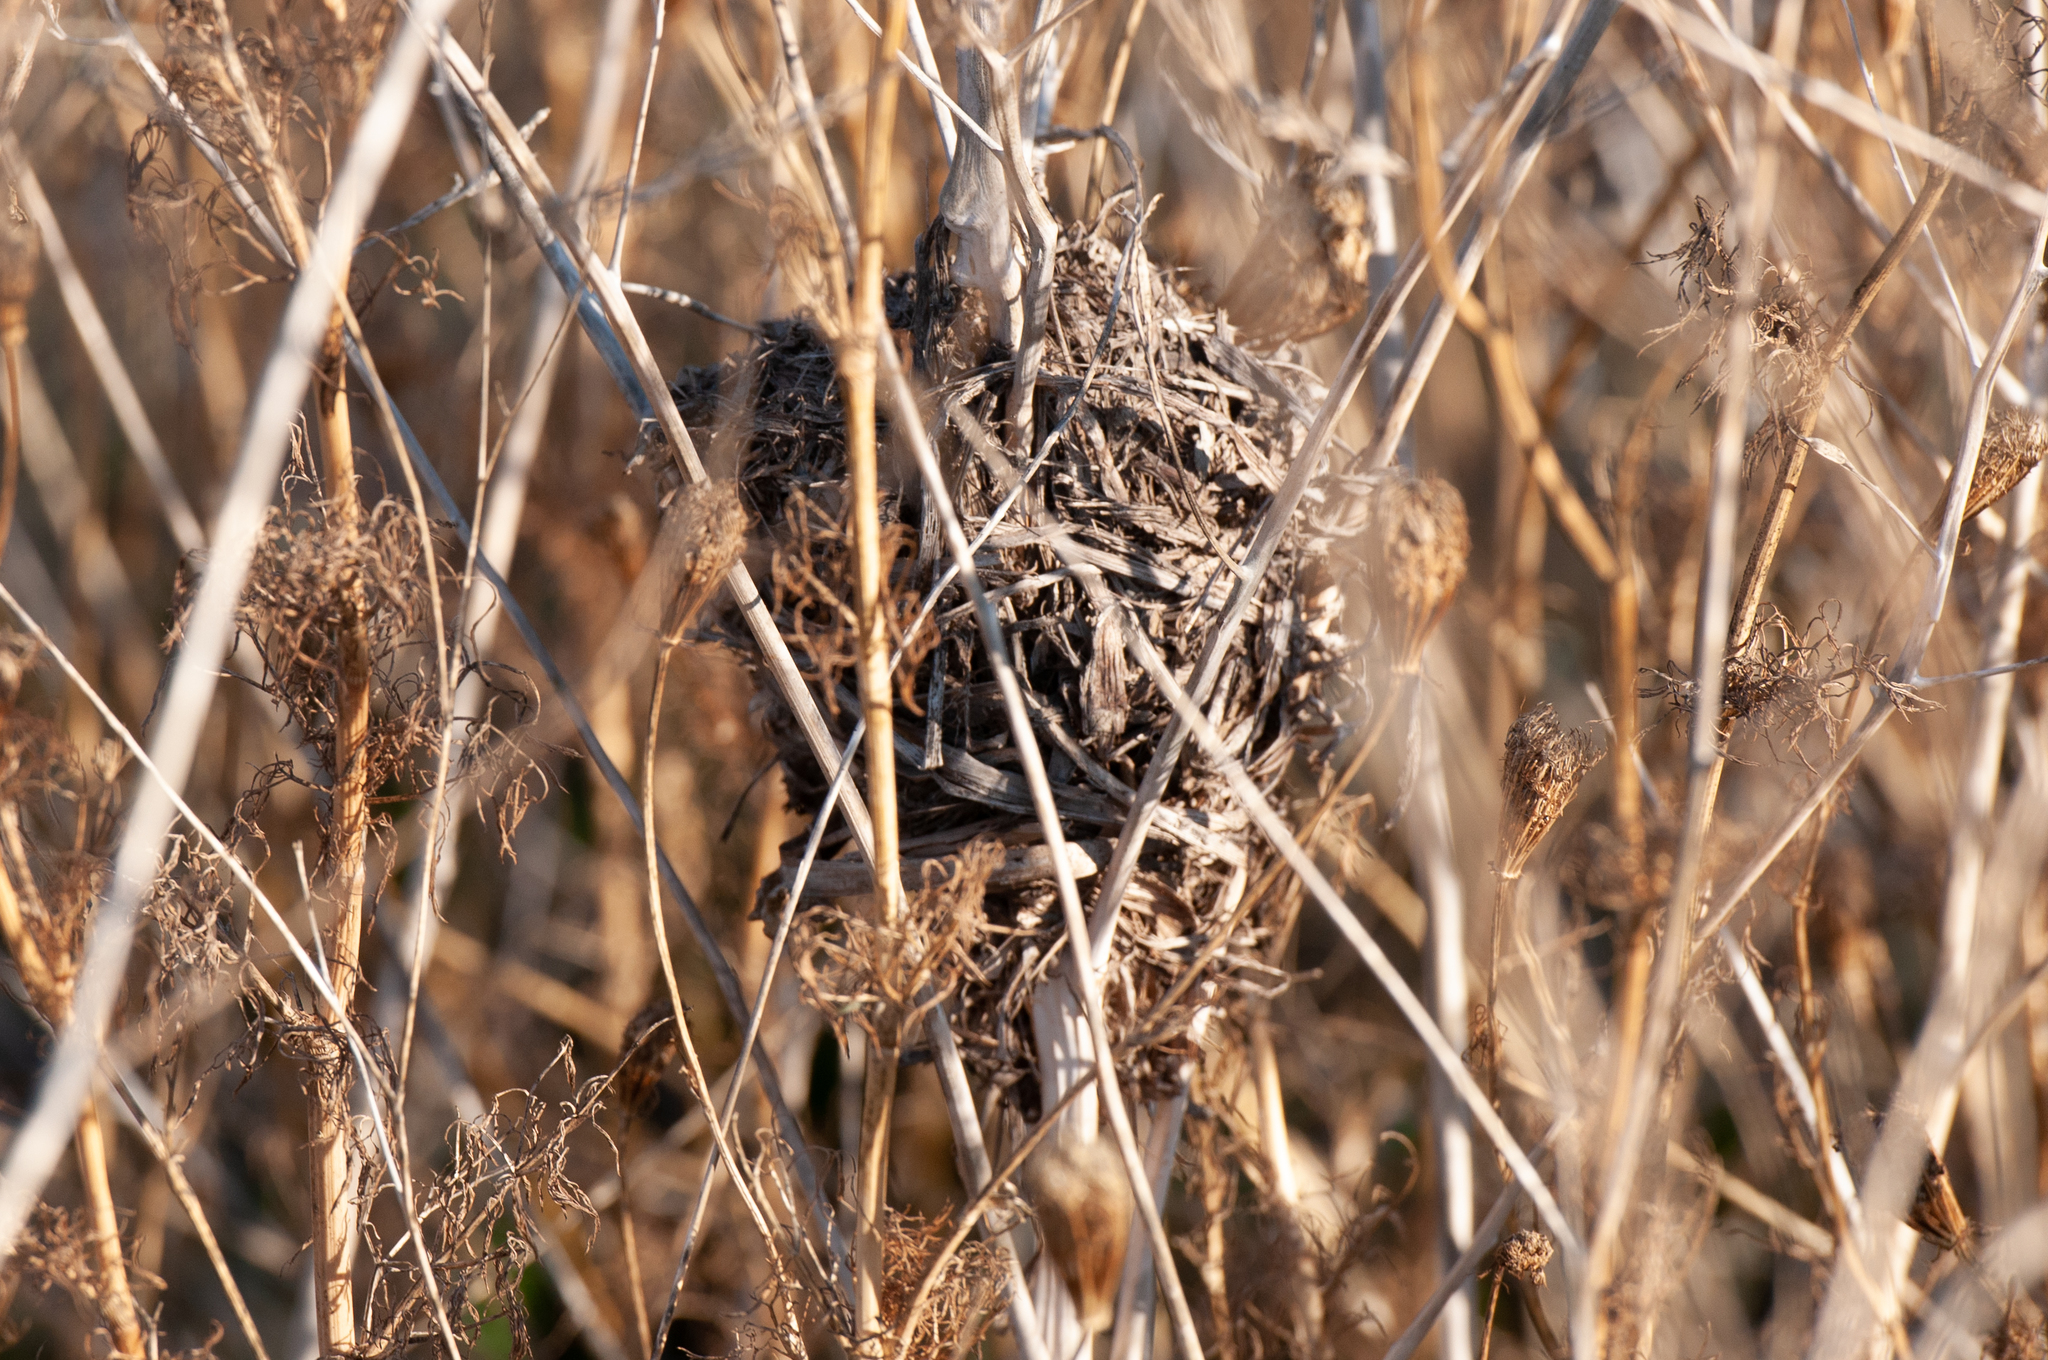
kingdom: Animalia
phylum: Chordata
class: Aves
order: Passeriformes
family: Troglodytidae
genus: Cistothorus
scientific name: Cistothorus palustris
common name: Marsh wren
